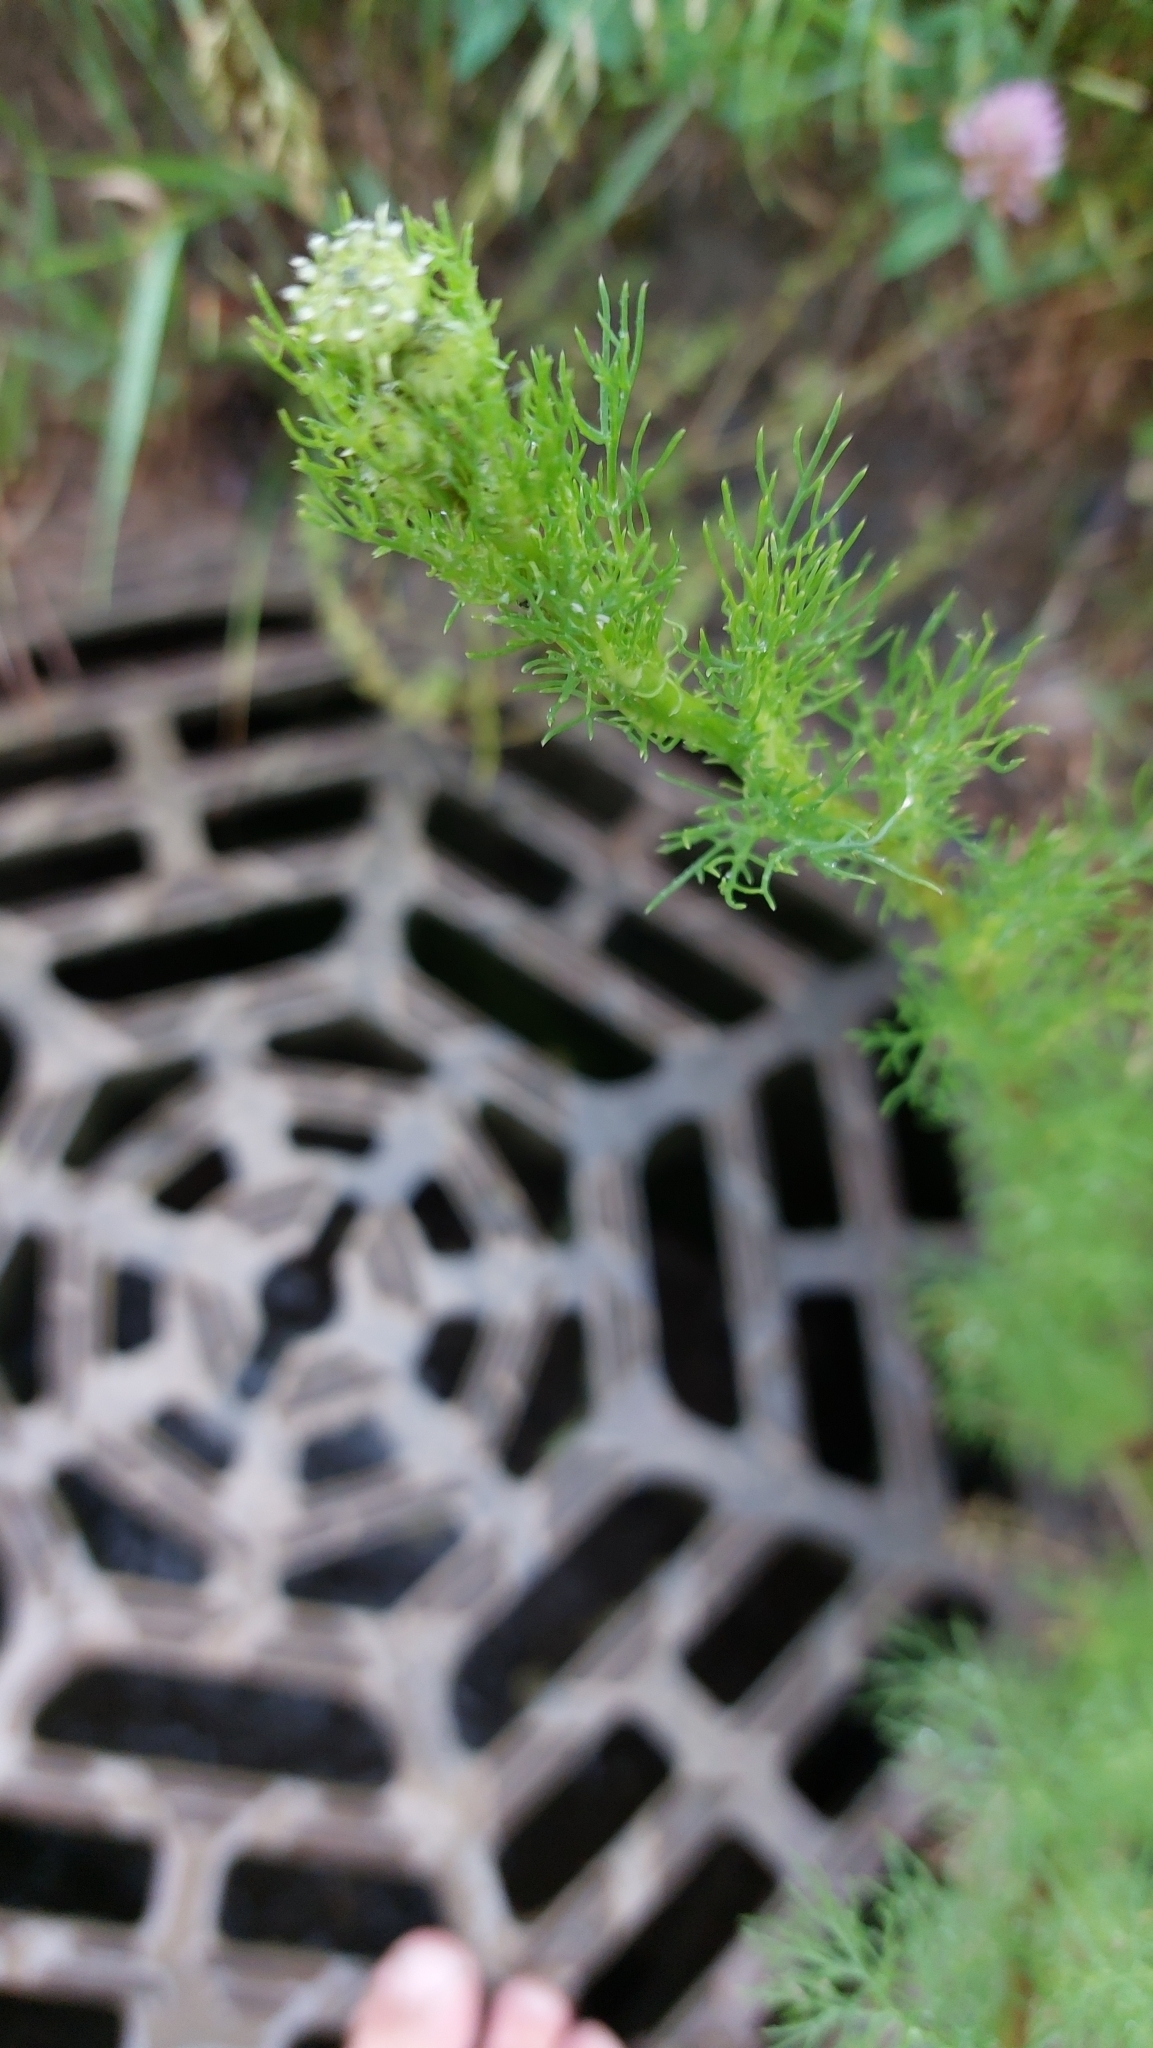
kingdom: Plantae
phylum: Tracheophyta
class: Magnoliopsida
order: Asterales
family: Asteraceae
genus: Tripleurospermum
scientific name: Tripleurospermum inodorum
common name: Scentless mayweed
